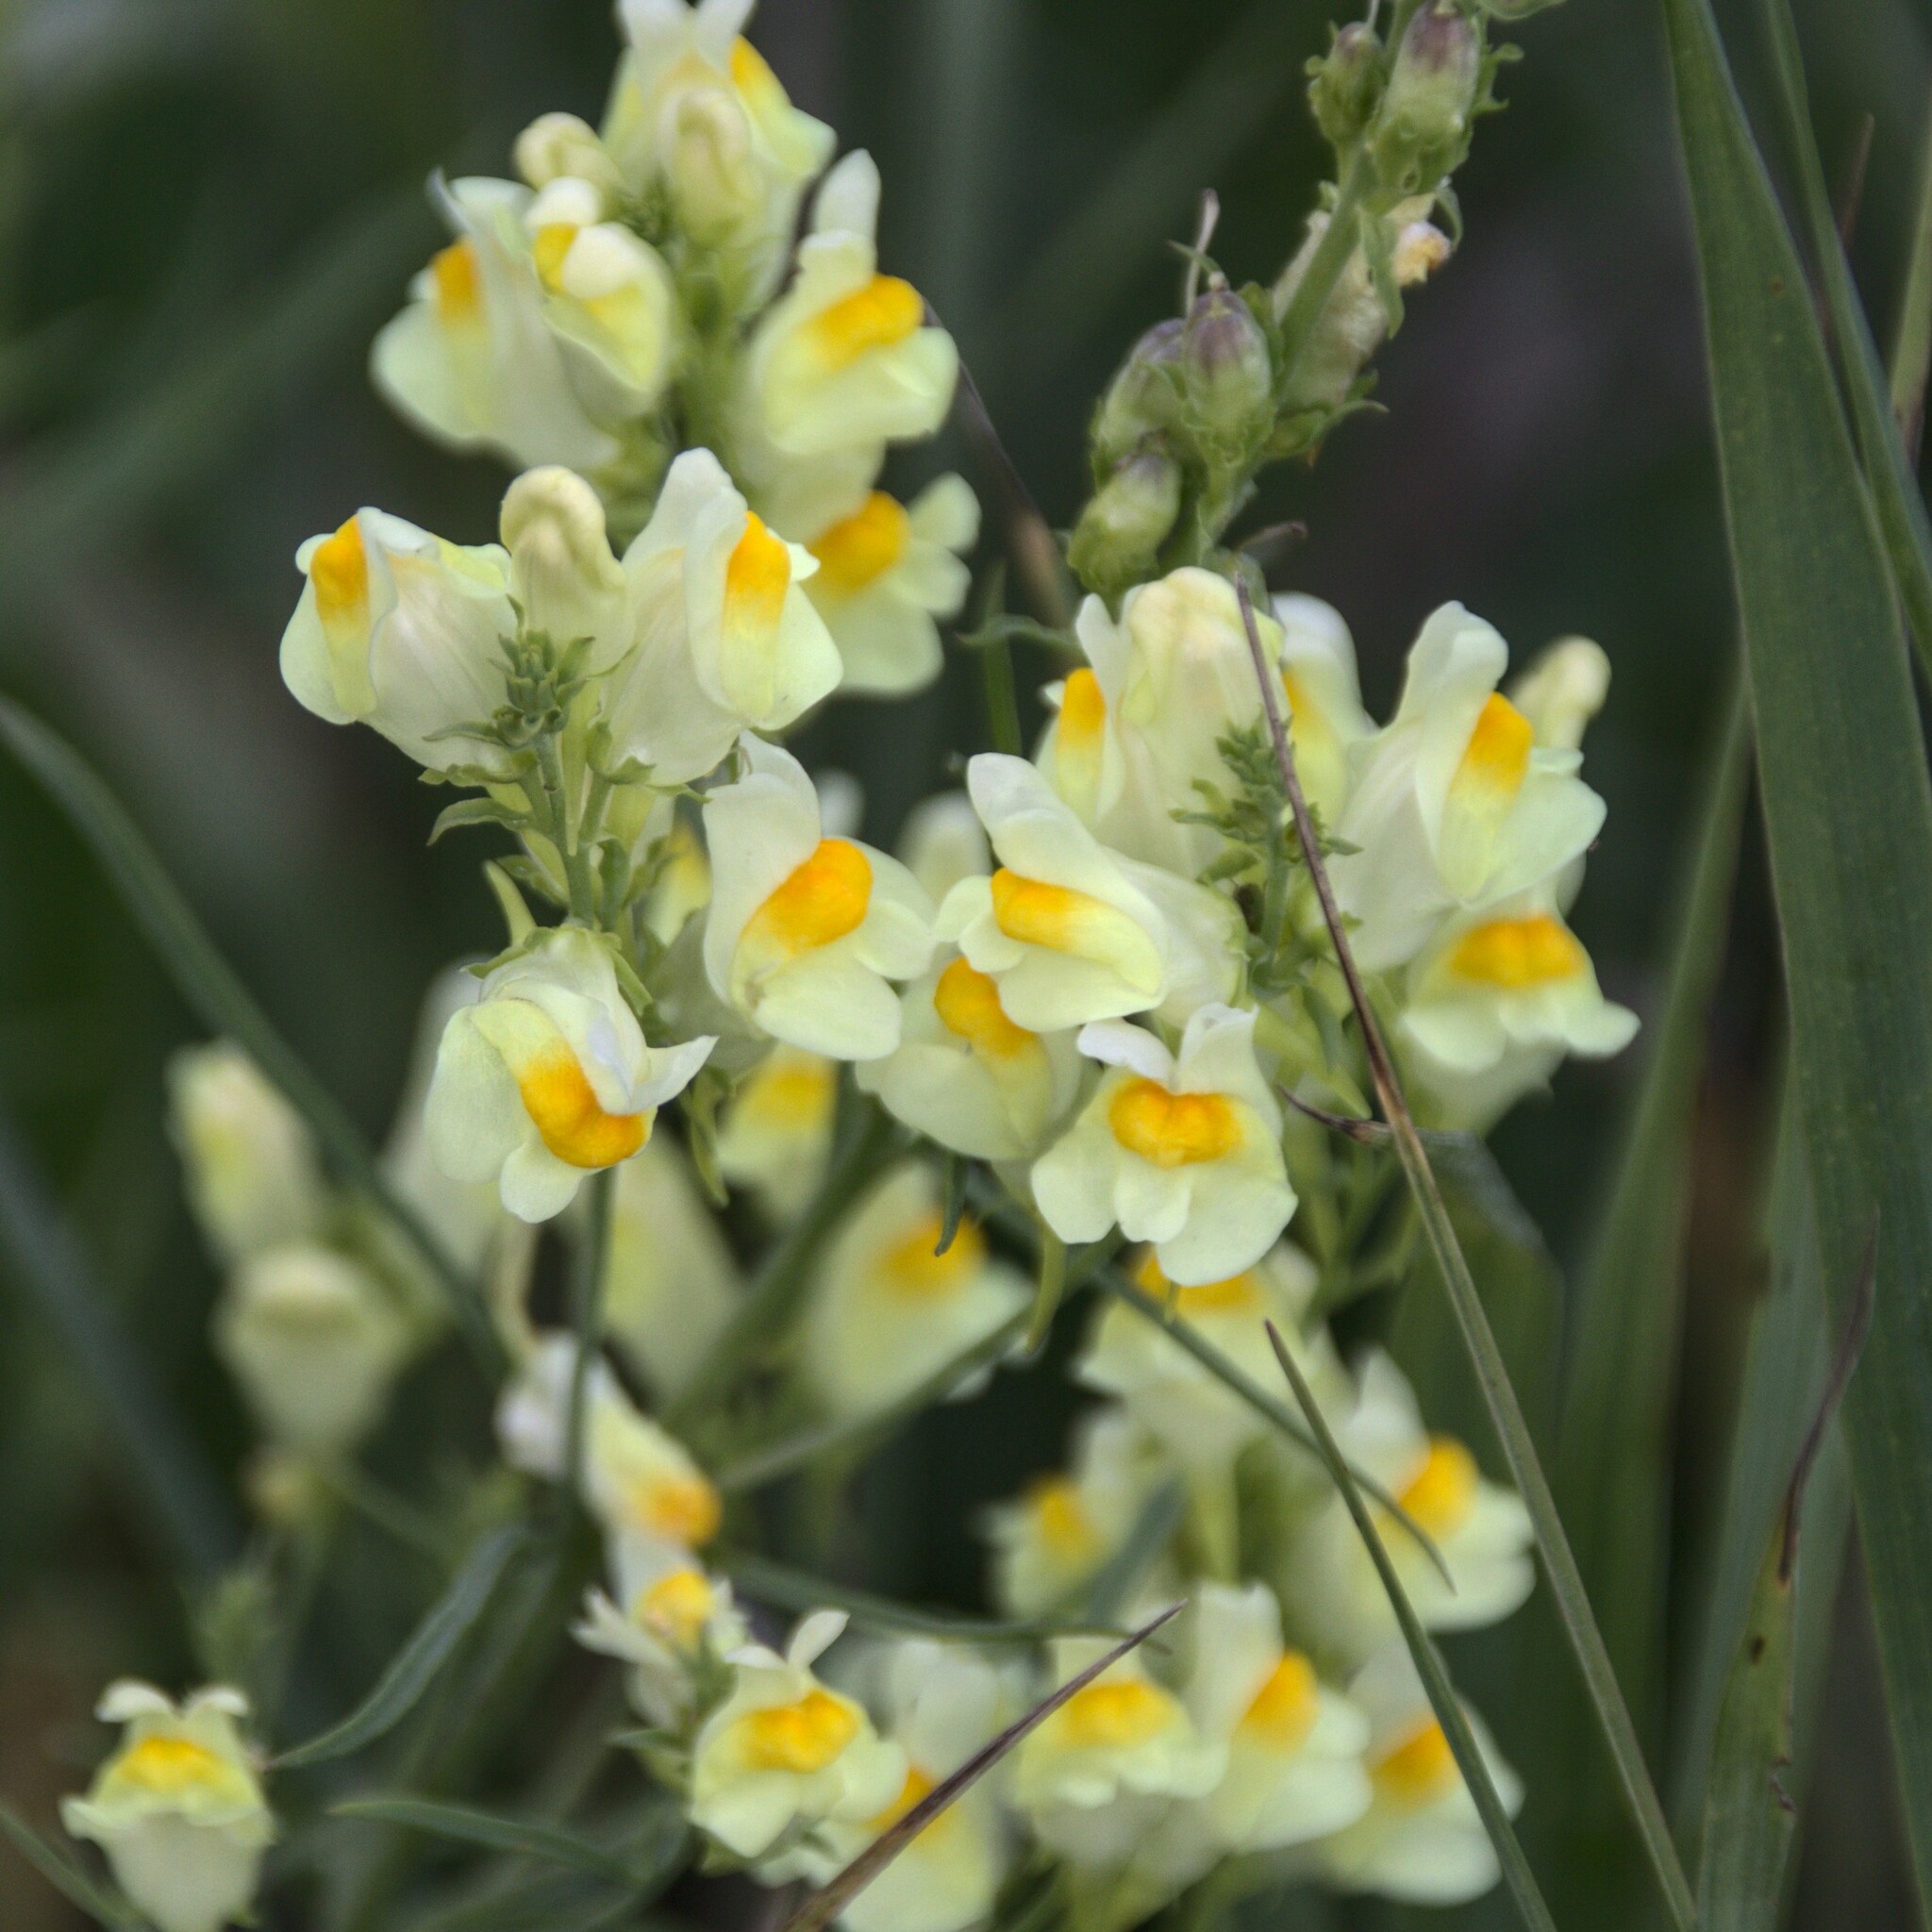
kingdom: Plantae
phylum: Tracheophyta
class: Magnoliopsida
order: Lamiales
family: Plantaginaceae
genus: Linaria
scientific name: Linaria vulgaris
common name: Butter and eggs
